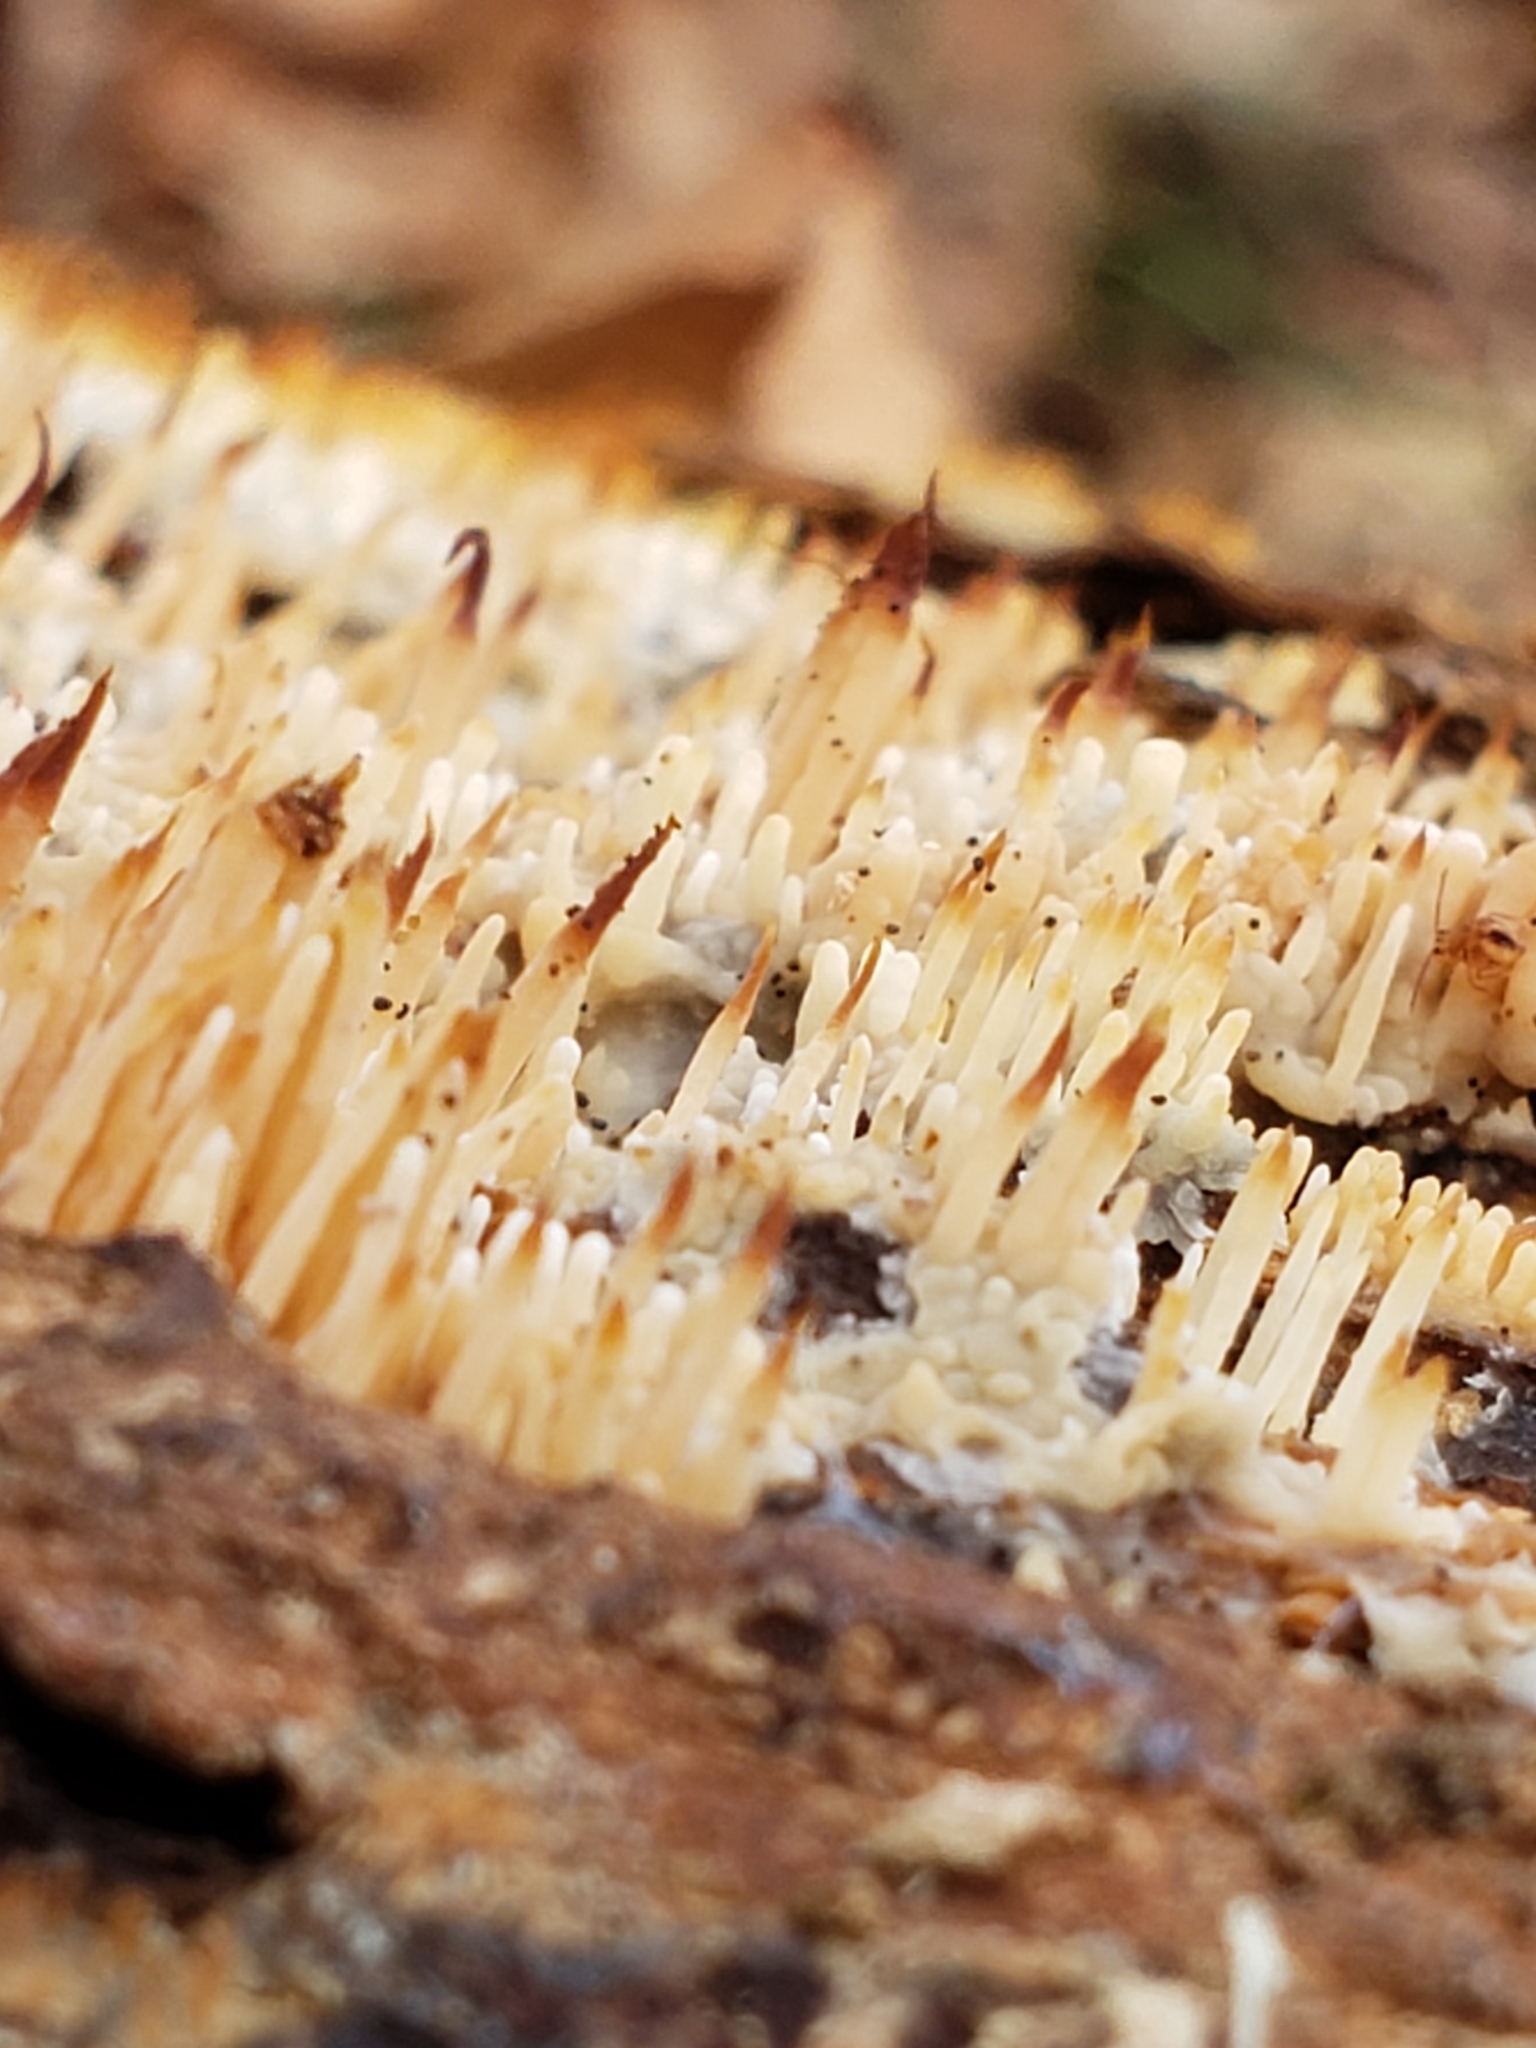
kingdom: Fungi
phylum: Basidiomycota
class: Agaricomycetes
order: Agaricales
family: Radulomycetaceae
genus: Radulomyces
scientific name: Radulomyces copelandii
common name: Asian beauty
